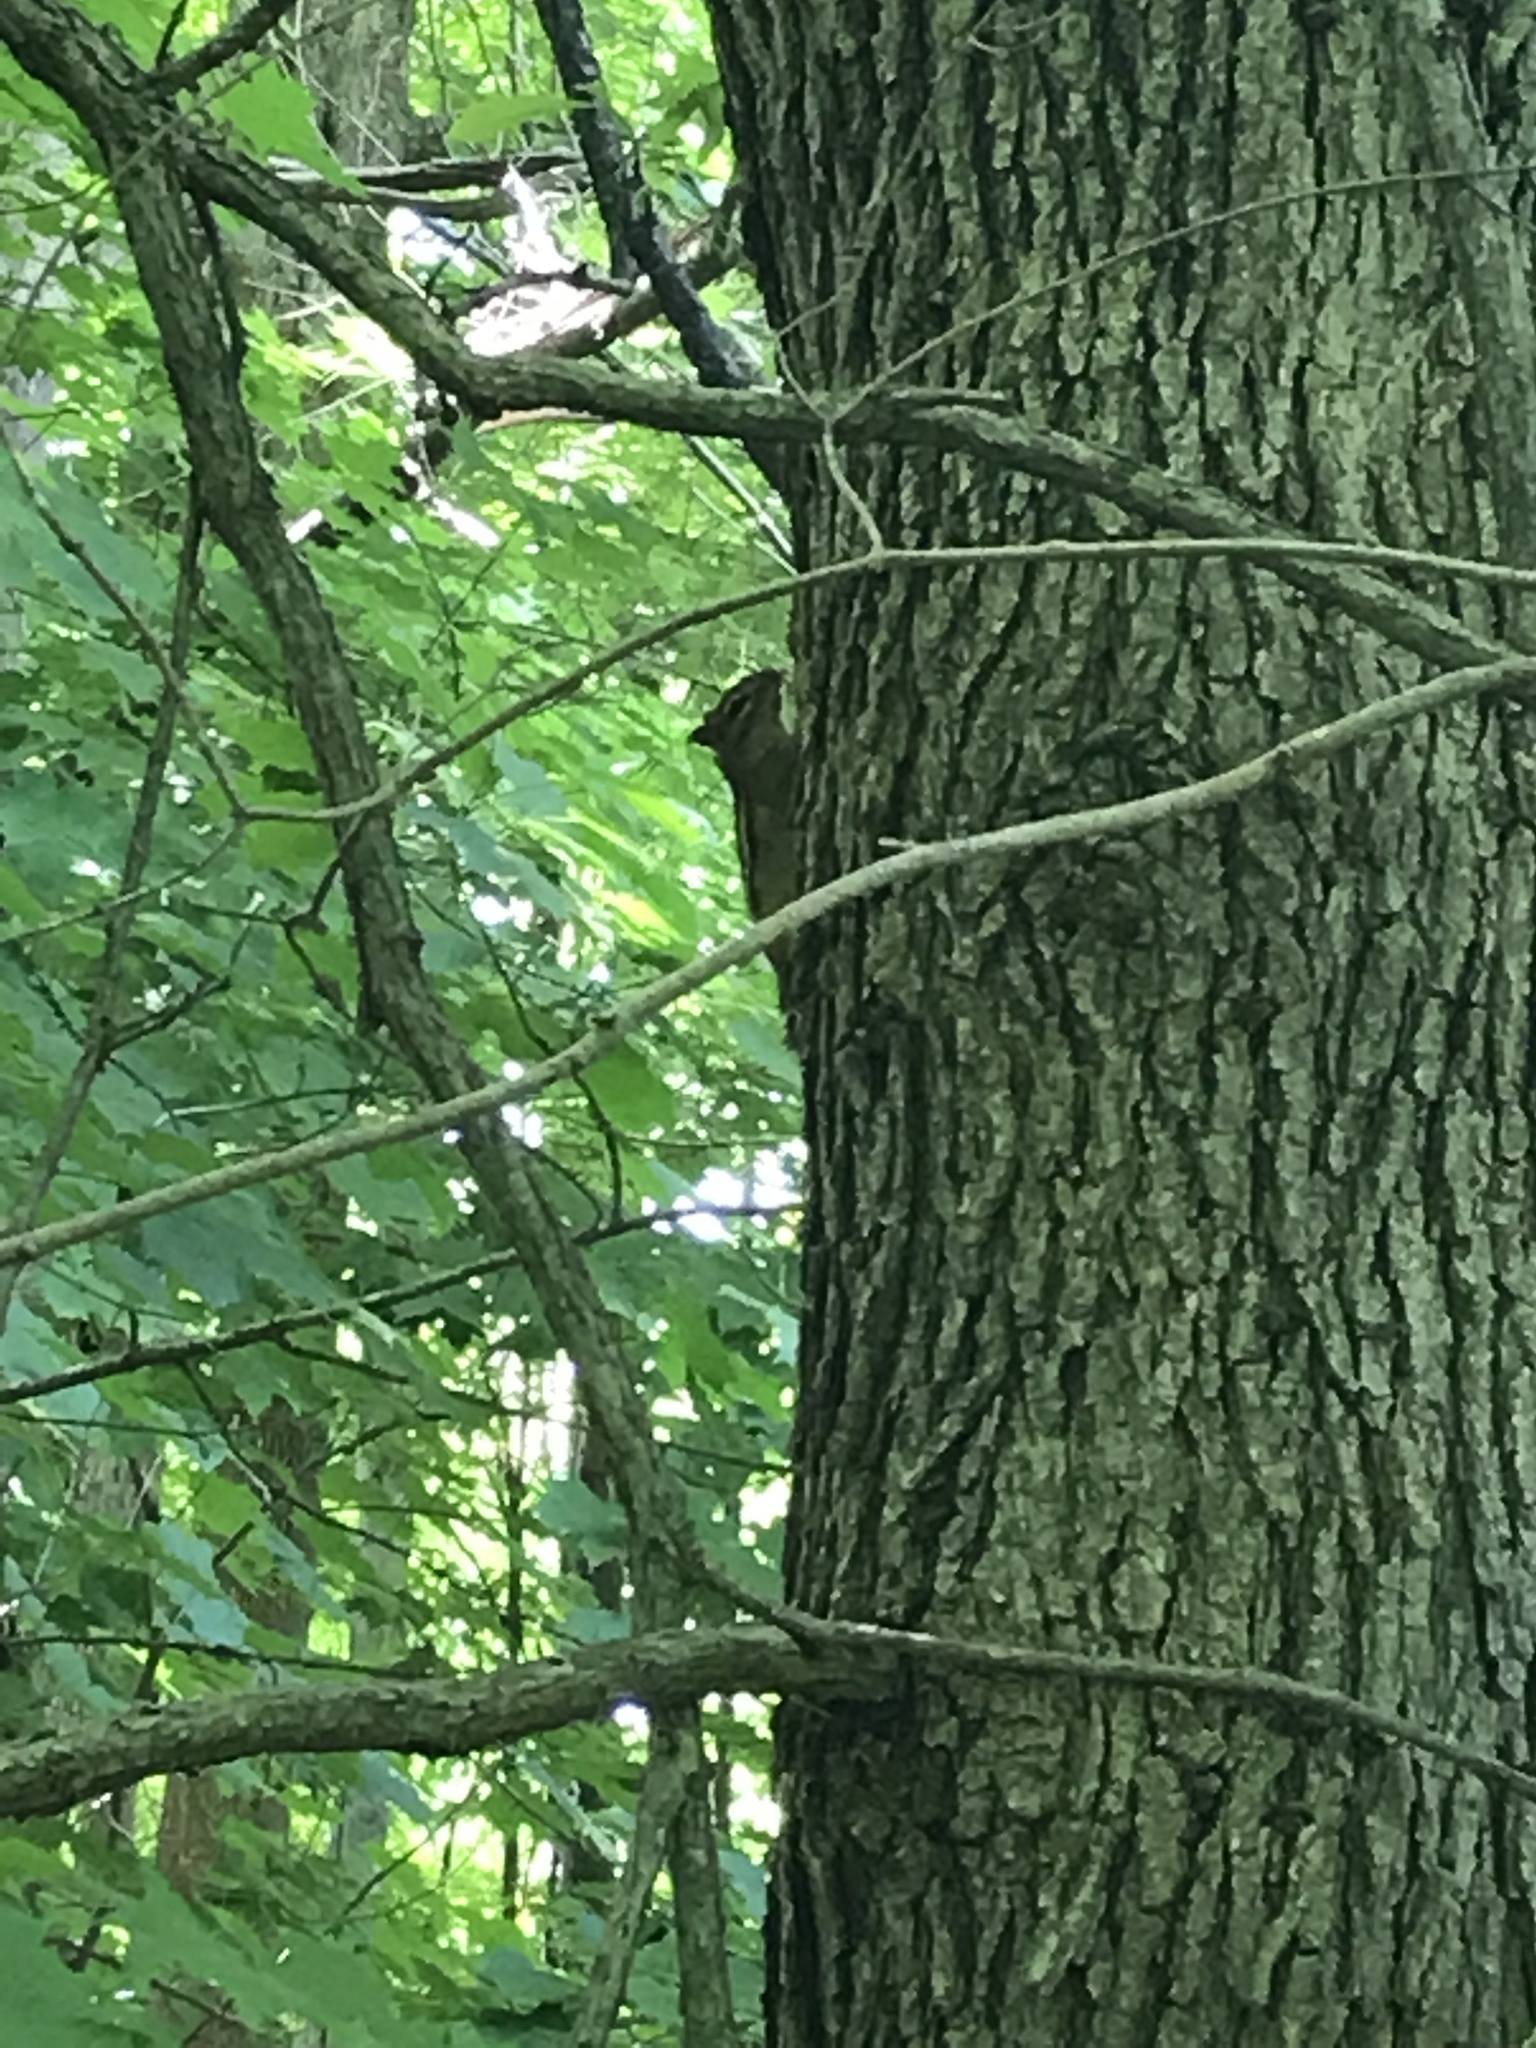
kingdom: Animalia
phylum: Chordata
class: Mammalia
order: Rodentia
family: Sciuridae
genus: Tamias
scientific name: Tamias striatus
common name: Eastern chipmunk
